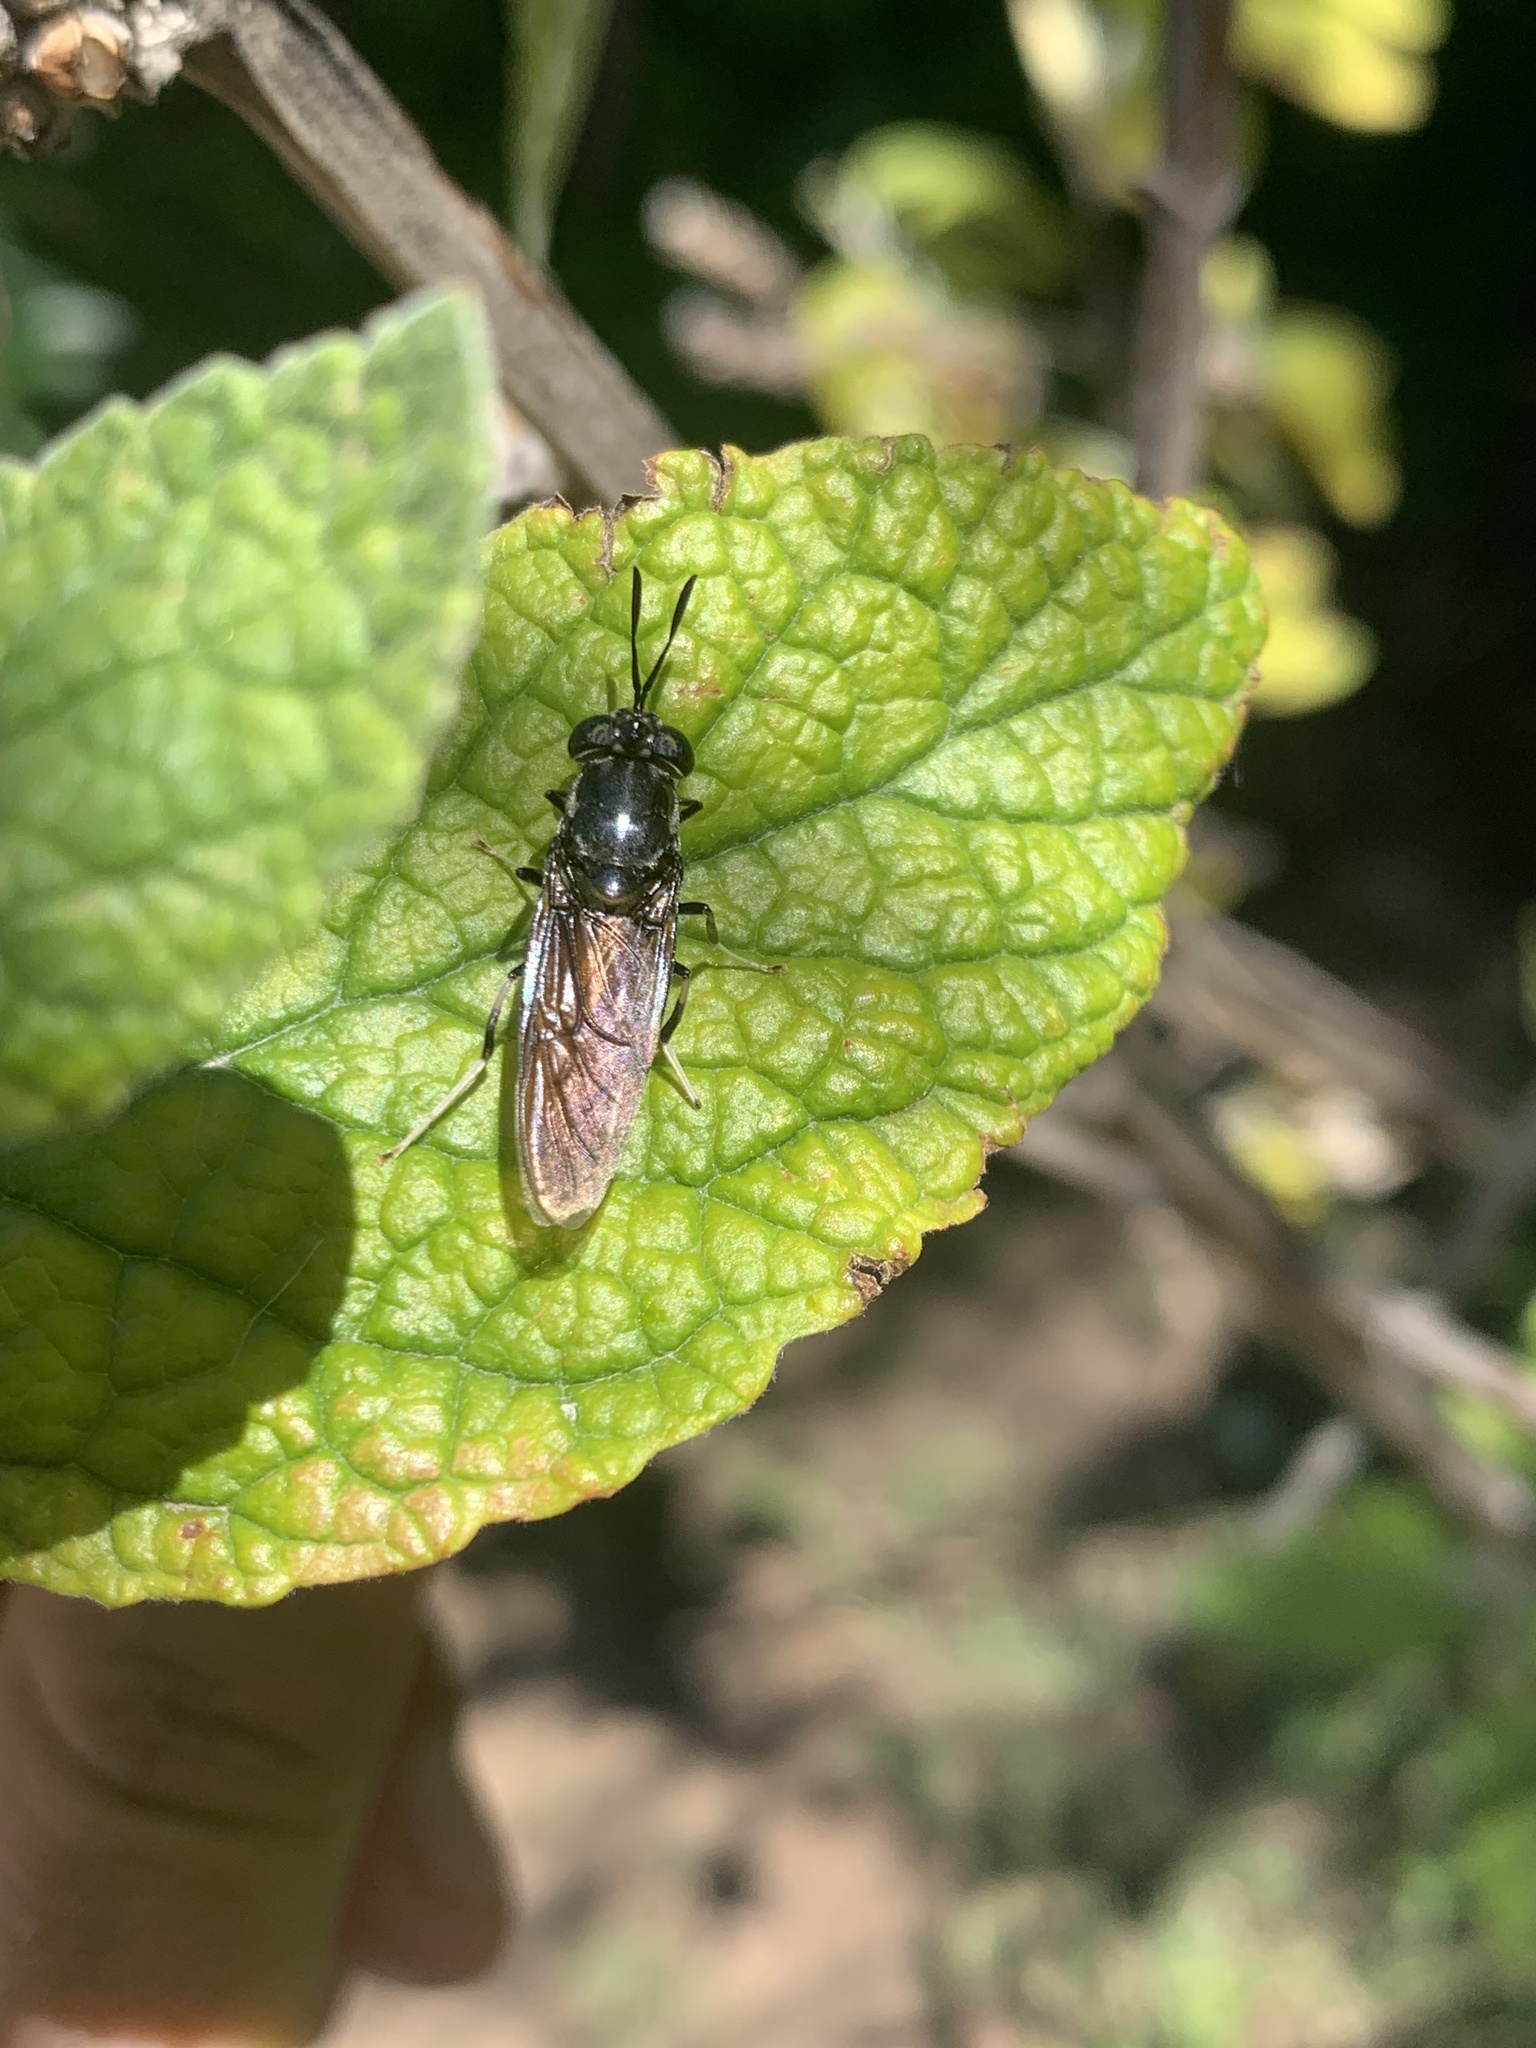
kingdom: Animalia
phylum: Arthropoda
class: Insecta
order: Diptera
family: Stratiomyidae
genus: Hermetia
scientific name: Hermetia illucens
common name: Black soldier fly
